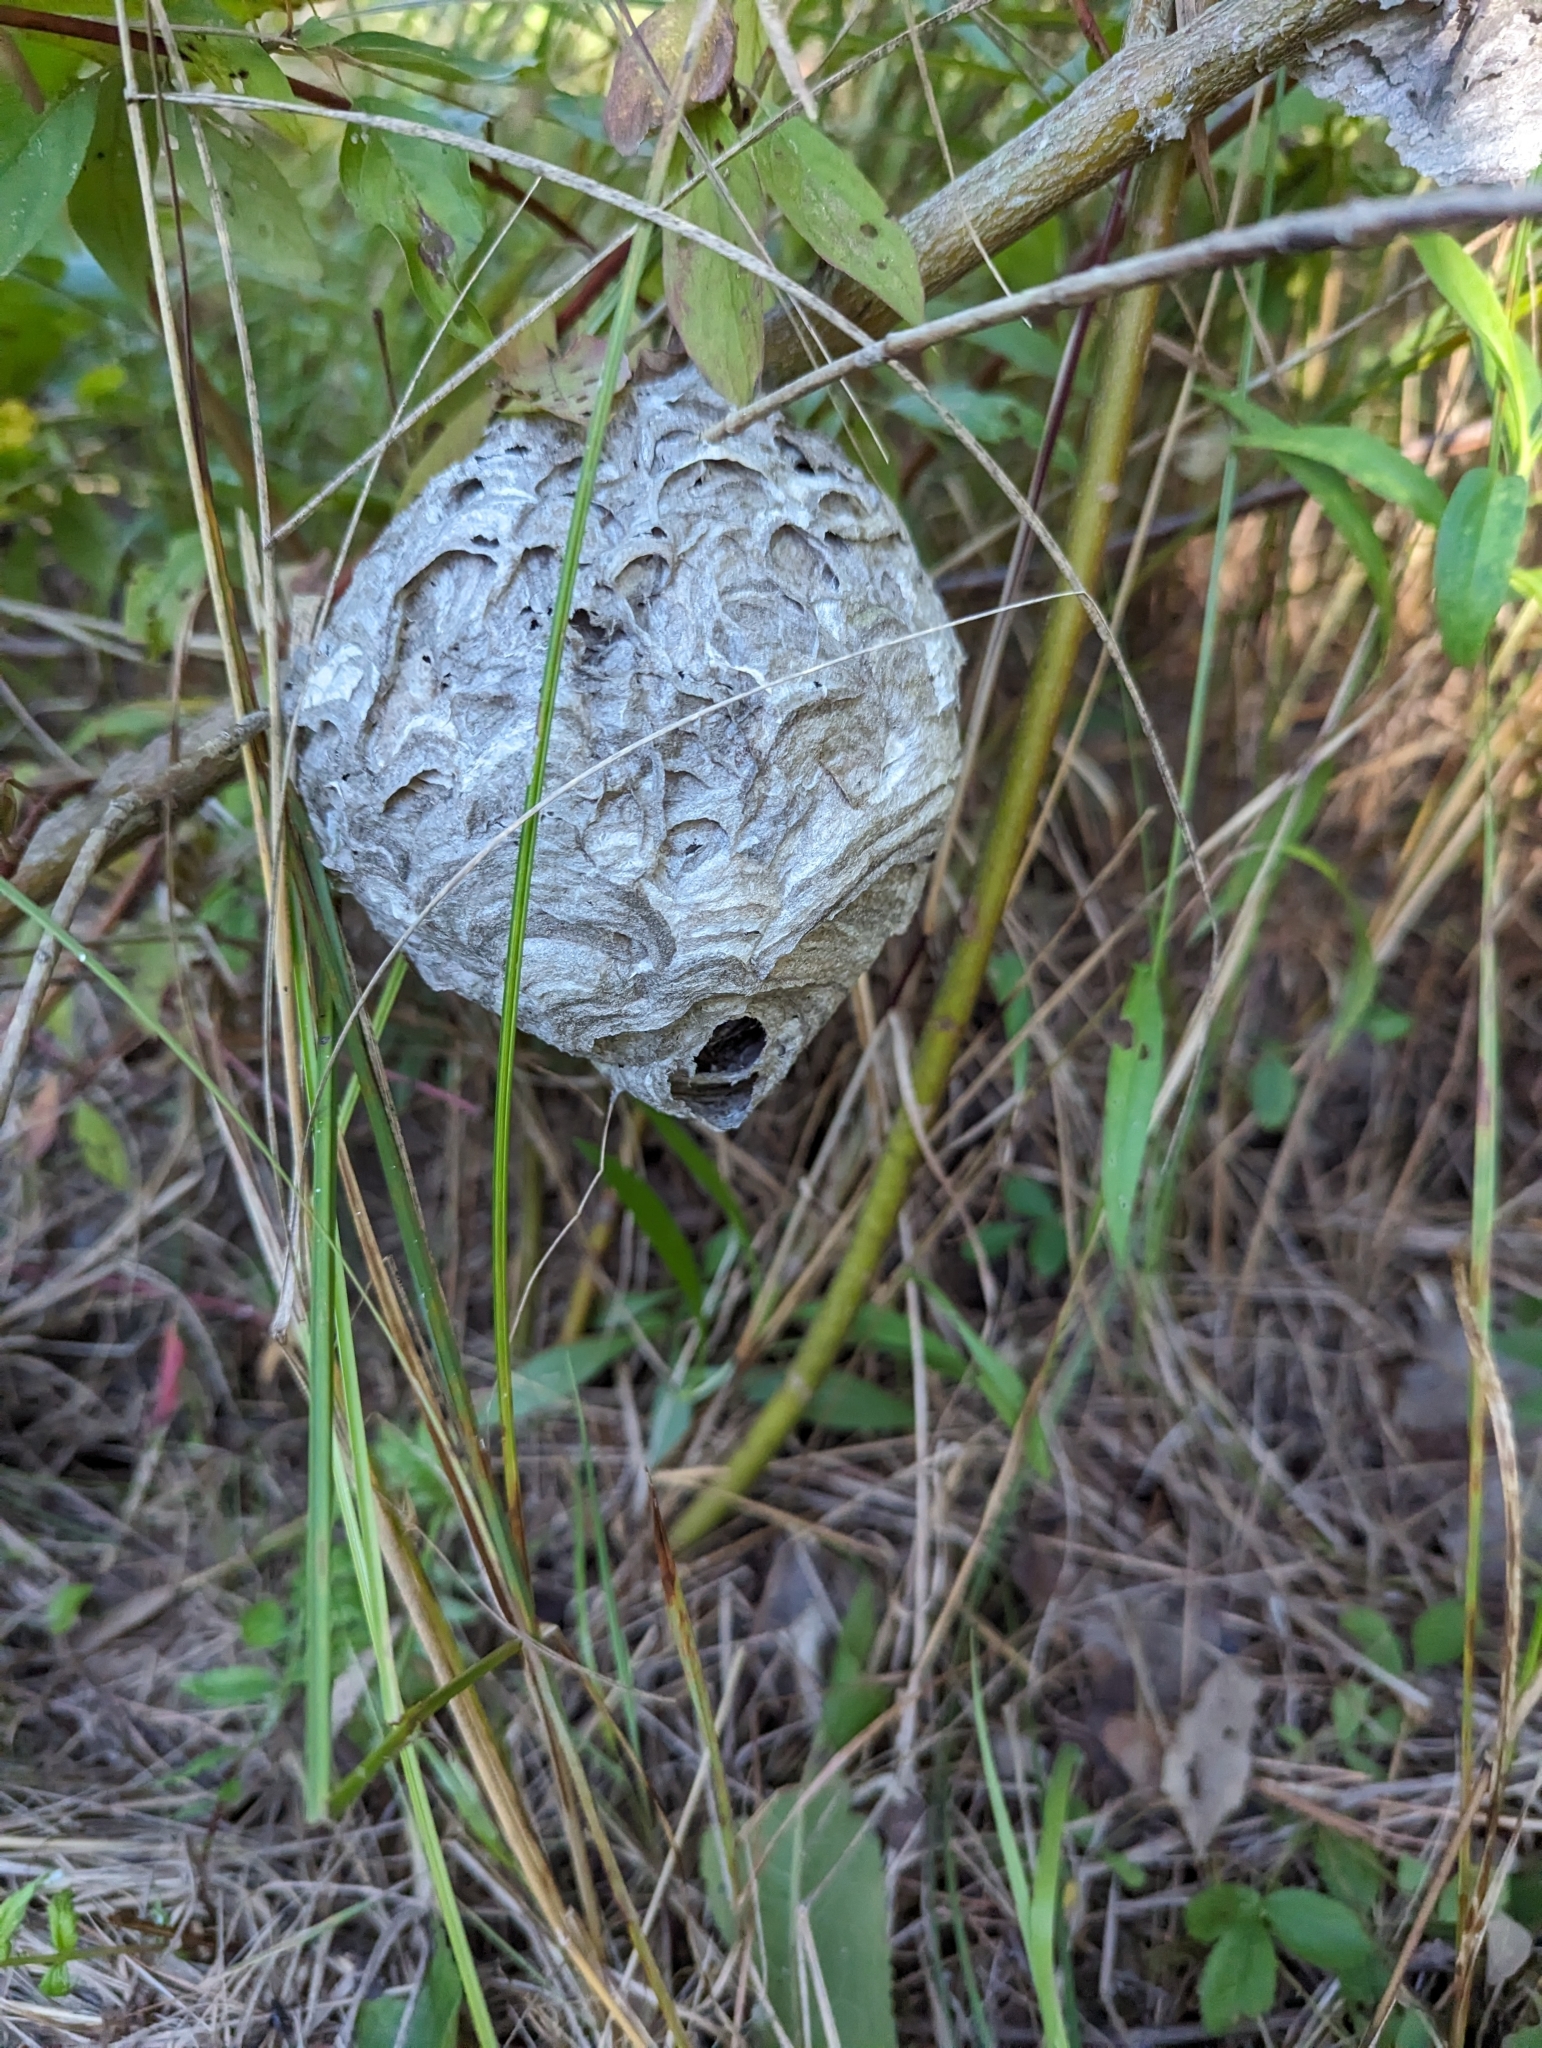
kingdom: Animalia
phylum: Arthropoda
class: Insecta
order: Hymenoptera
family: Vespidae
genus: Dolichovespula
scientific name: Dolichovespula maculata
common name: Bald-faced hornet
